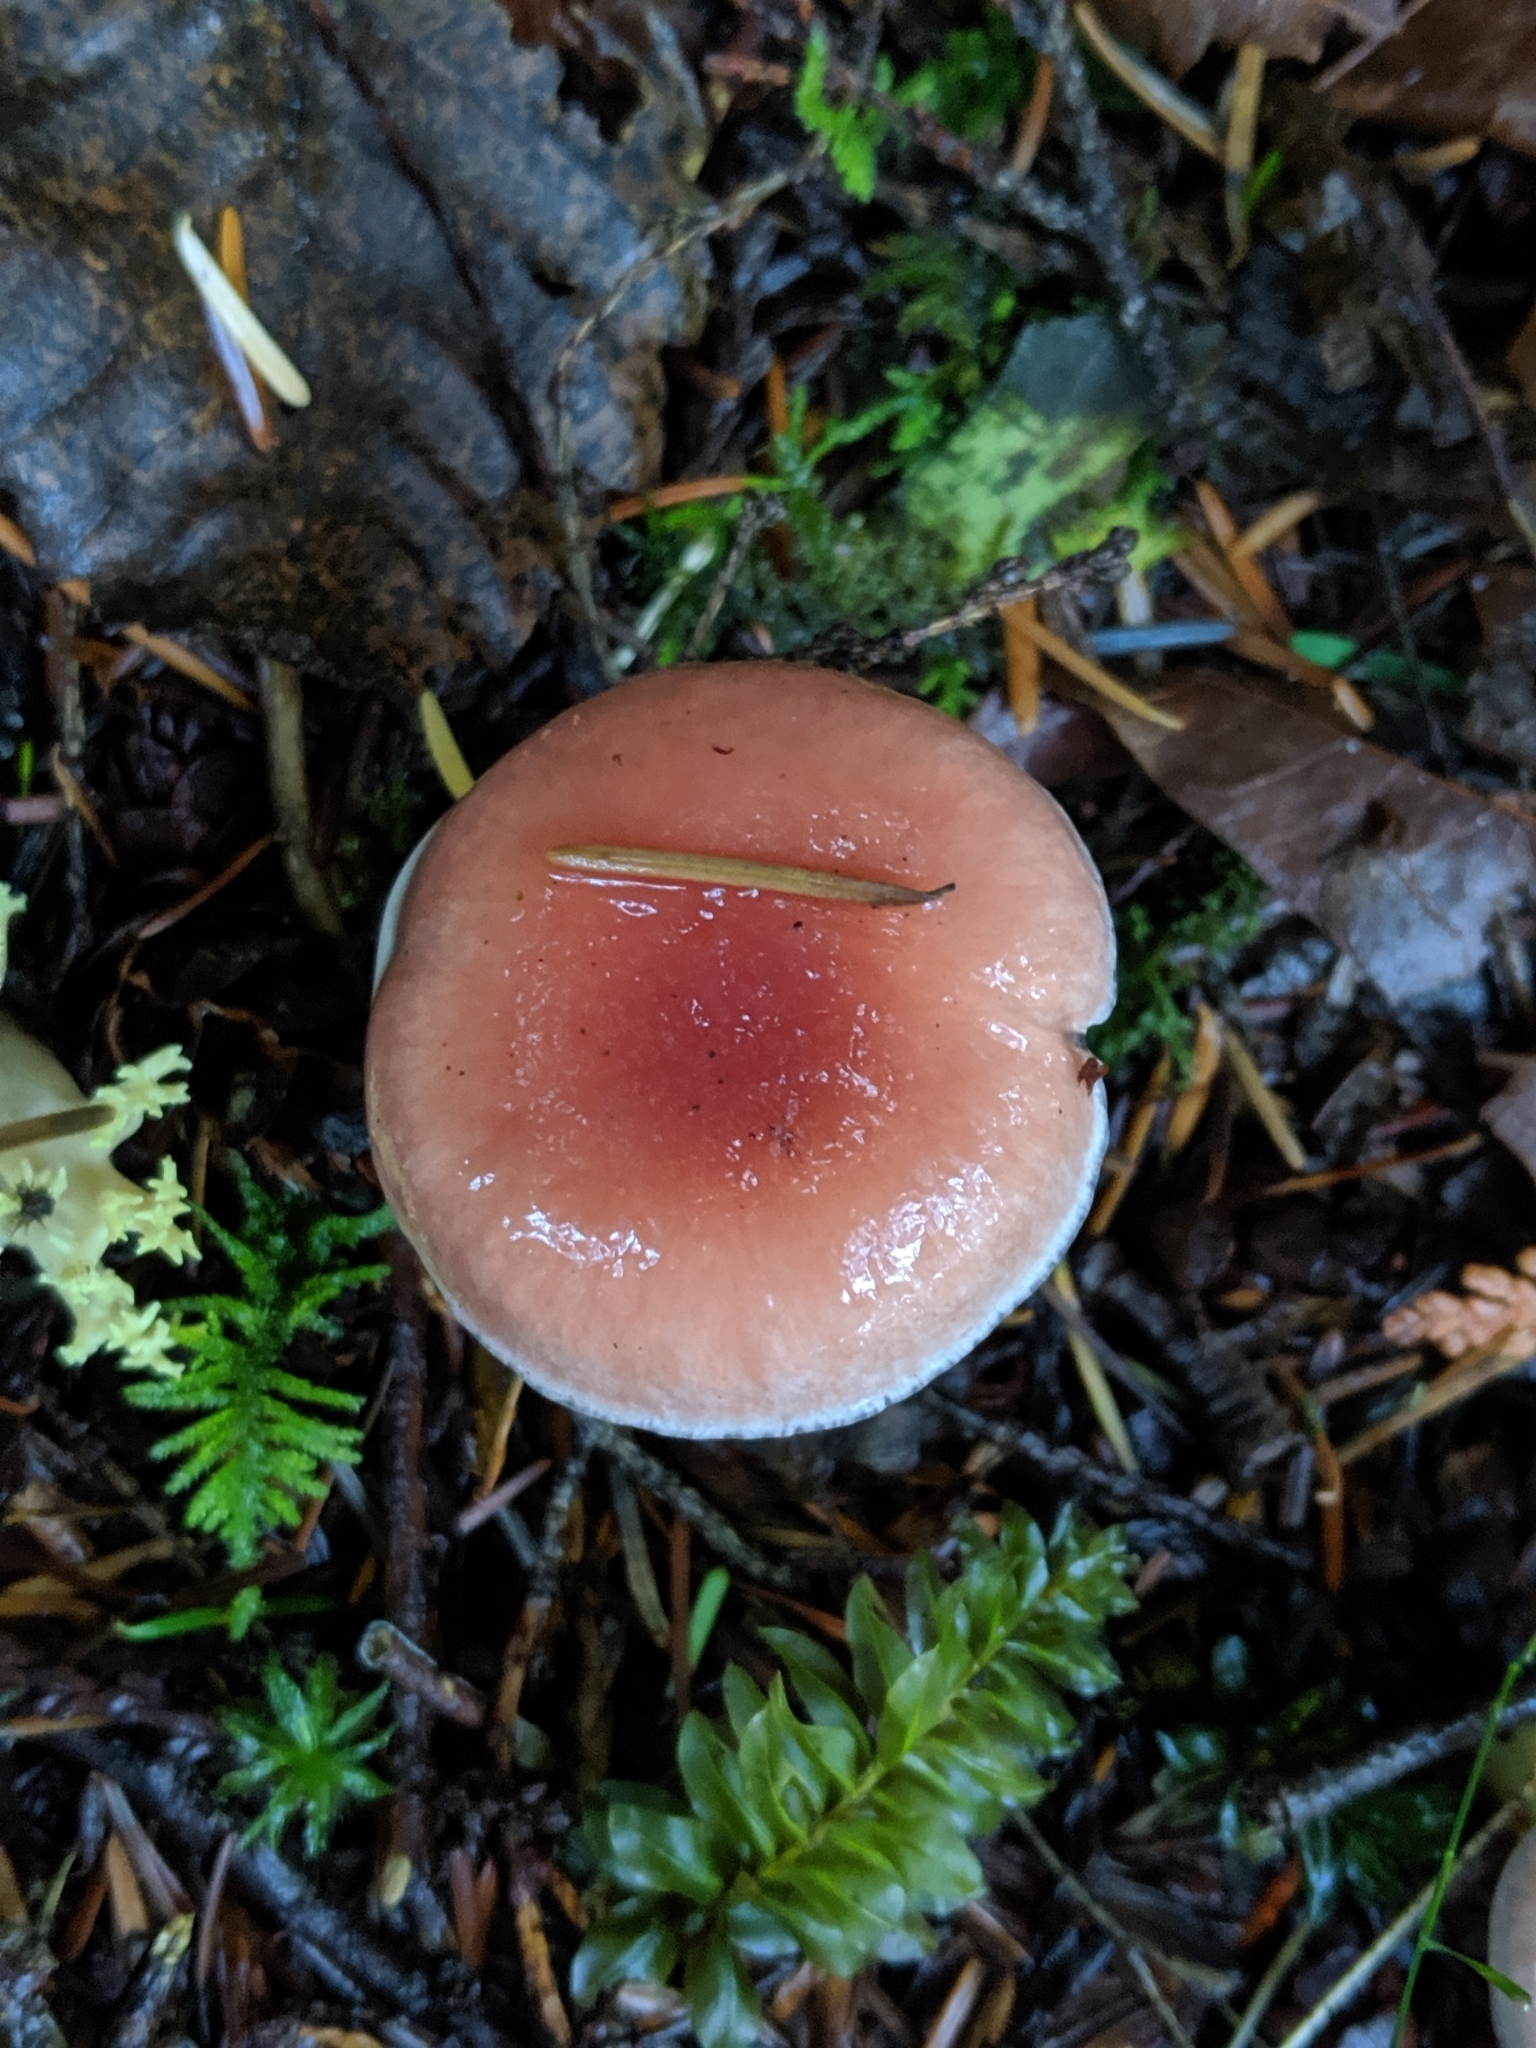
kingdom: Fungi
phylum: Basidiomycota
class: Agaricomycetes
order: Boletales
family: Gomphidiaceae
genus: Gomphidius
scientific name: Gomphidius subroseus
